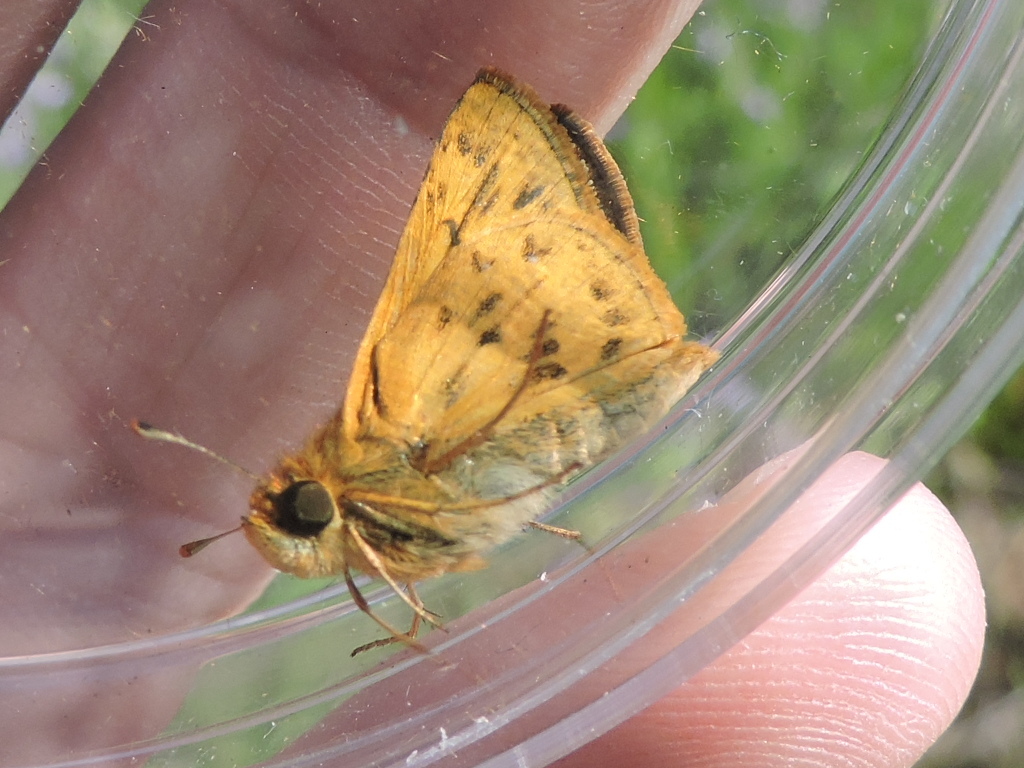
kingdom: Animalia
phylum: Arthropoda
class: Insecta
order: Lepidoptera
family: Hesperiidae
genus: Hylephila
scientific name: Hylephila phyleus
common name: Fiery skipper
